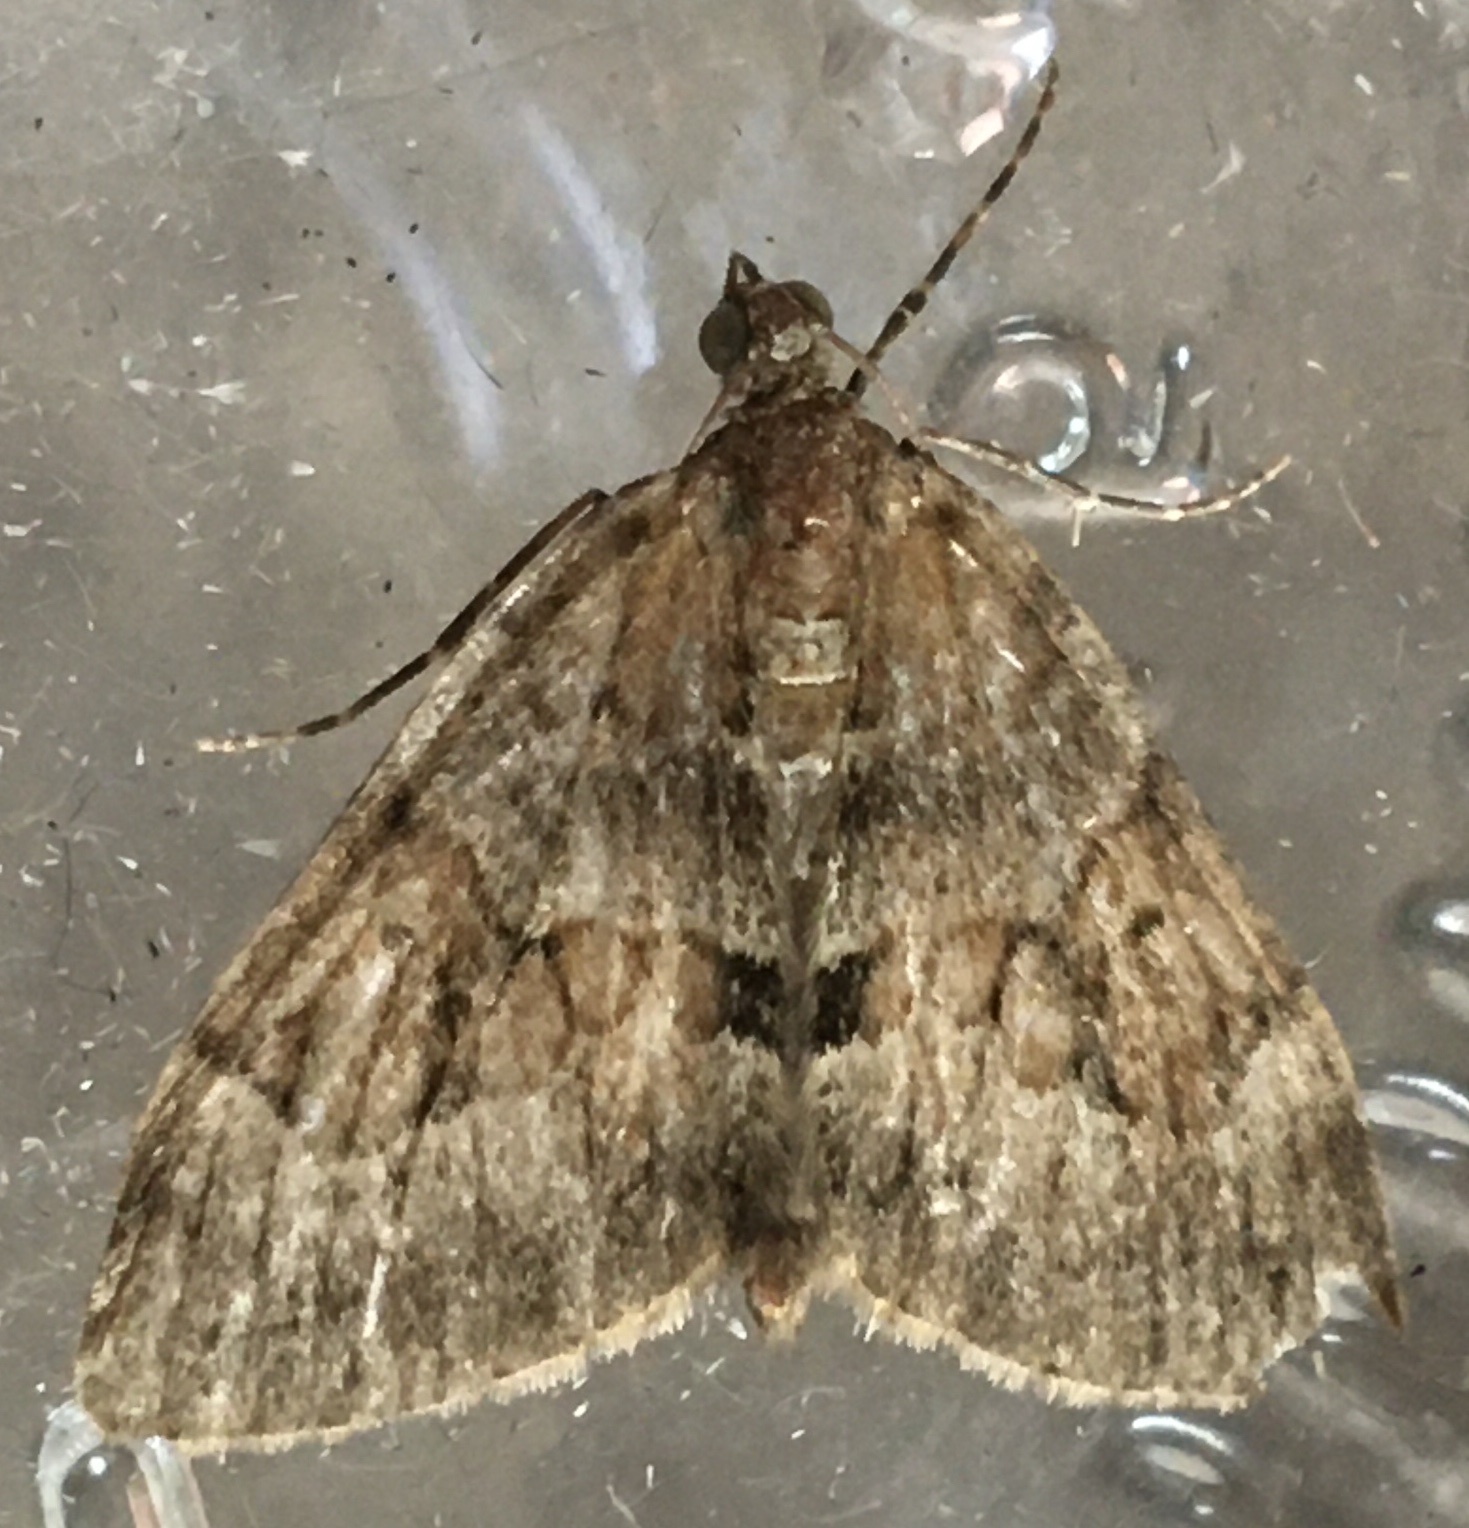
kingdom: Animalia
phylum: Arthropoda
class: Insecta
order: Lepidoptera
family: Geometridae
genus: Thera
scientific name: Thera obeliscata
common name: Grey pine carpet
